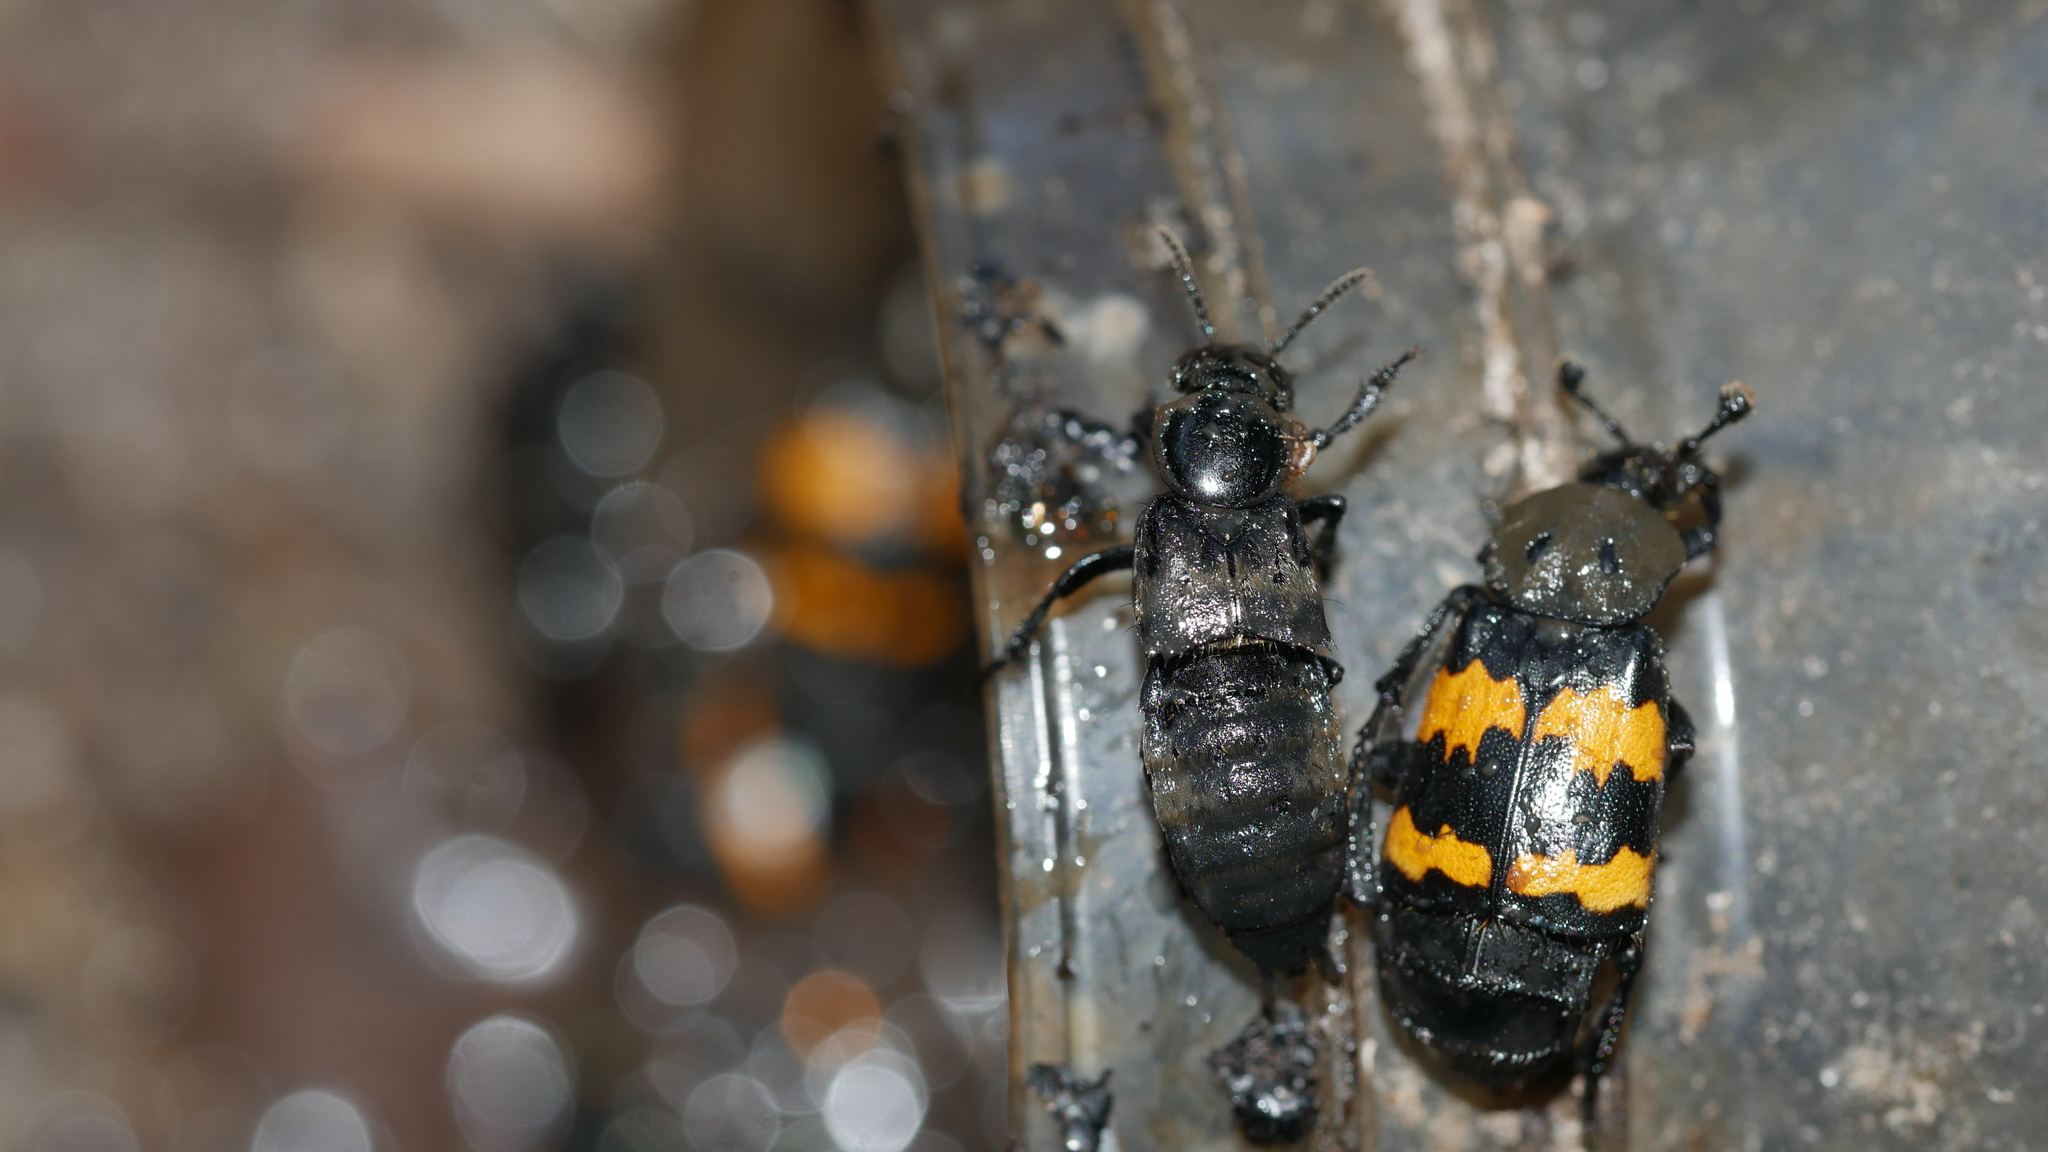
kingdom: Animalia
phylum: Arthropoda
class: Insecta
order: Coleoptera
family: Staphylinidae
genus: Creophilus
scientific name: Creophilus maxillosus
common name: Hairy rove beetle
